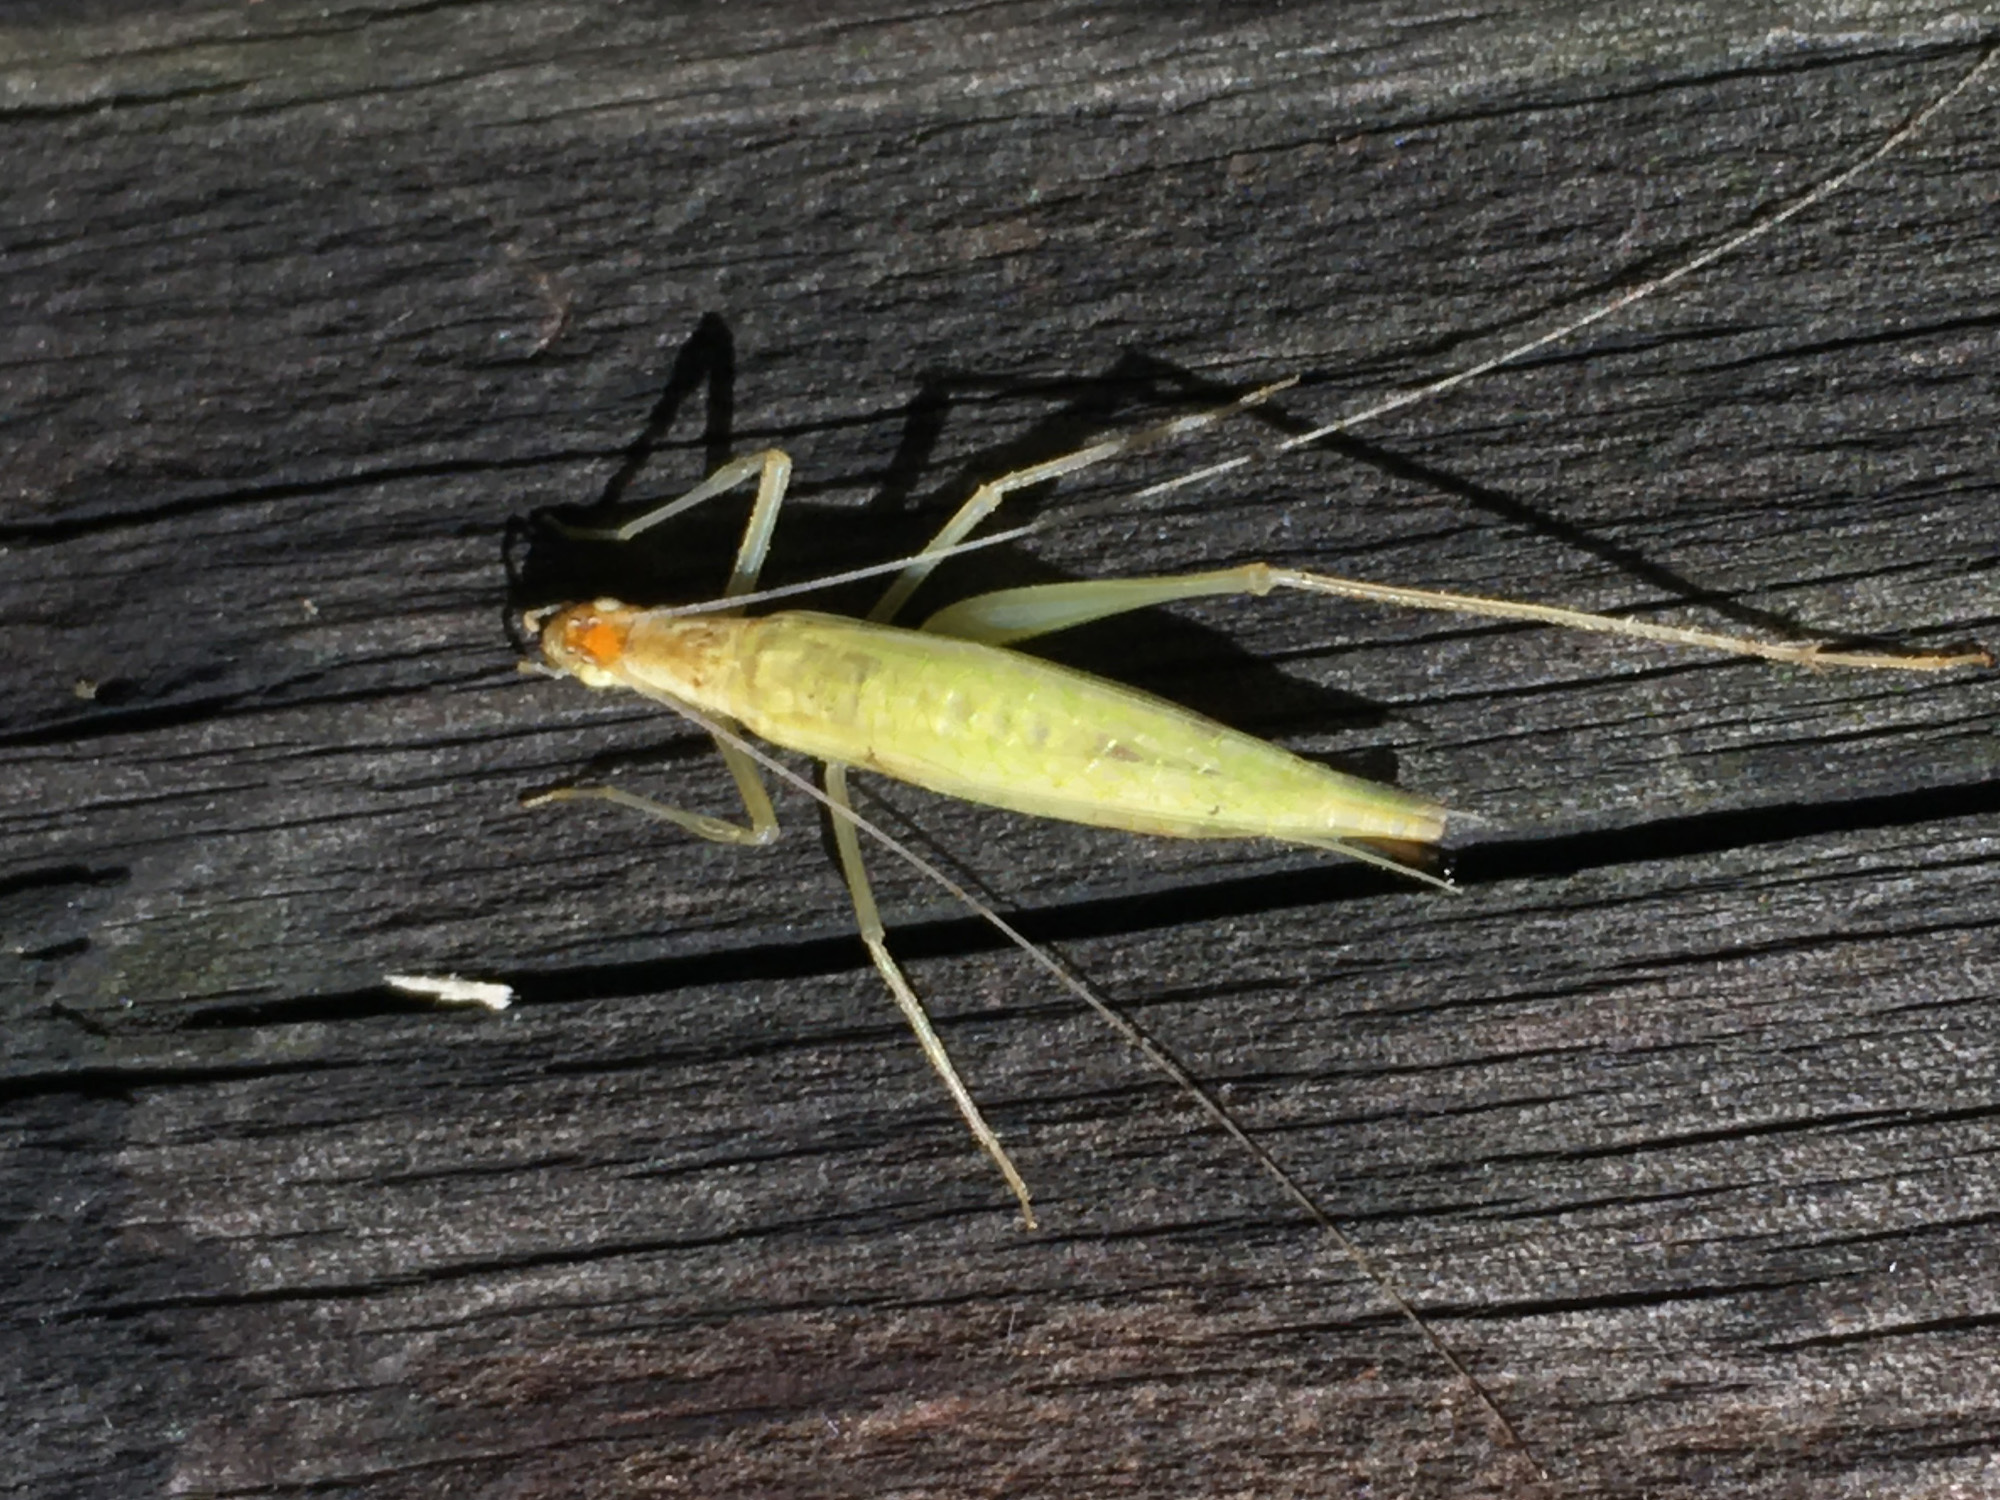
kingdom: Animalia
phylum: Arthropoda
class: Insecta
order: Orthoptera
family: Gryllidae
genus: Oecanthus
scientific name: Oecanthus niveus
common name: Narrow-winged tree cricket
